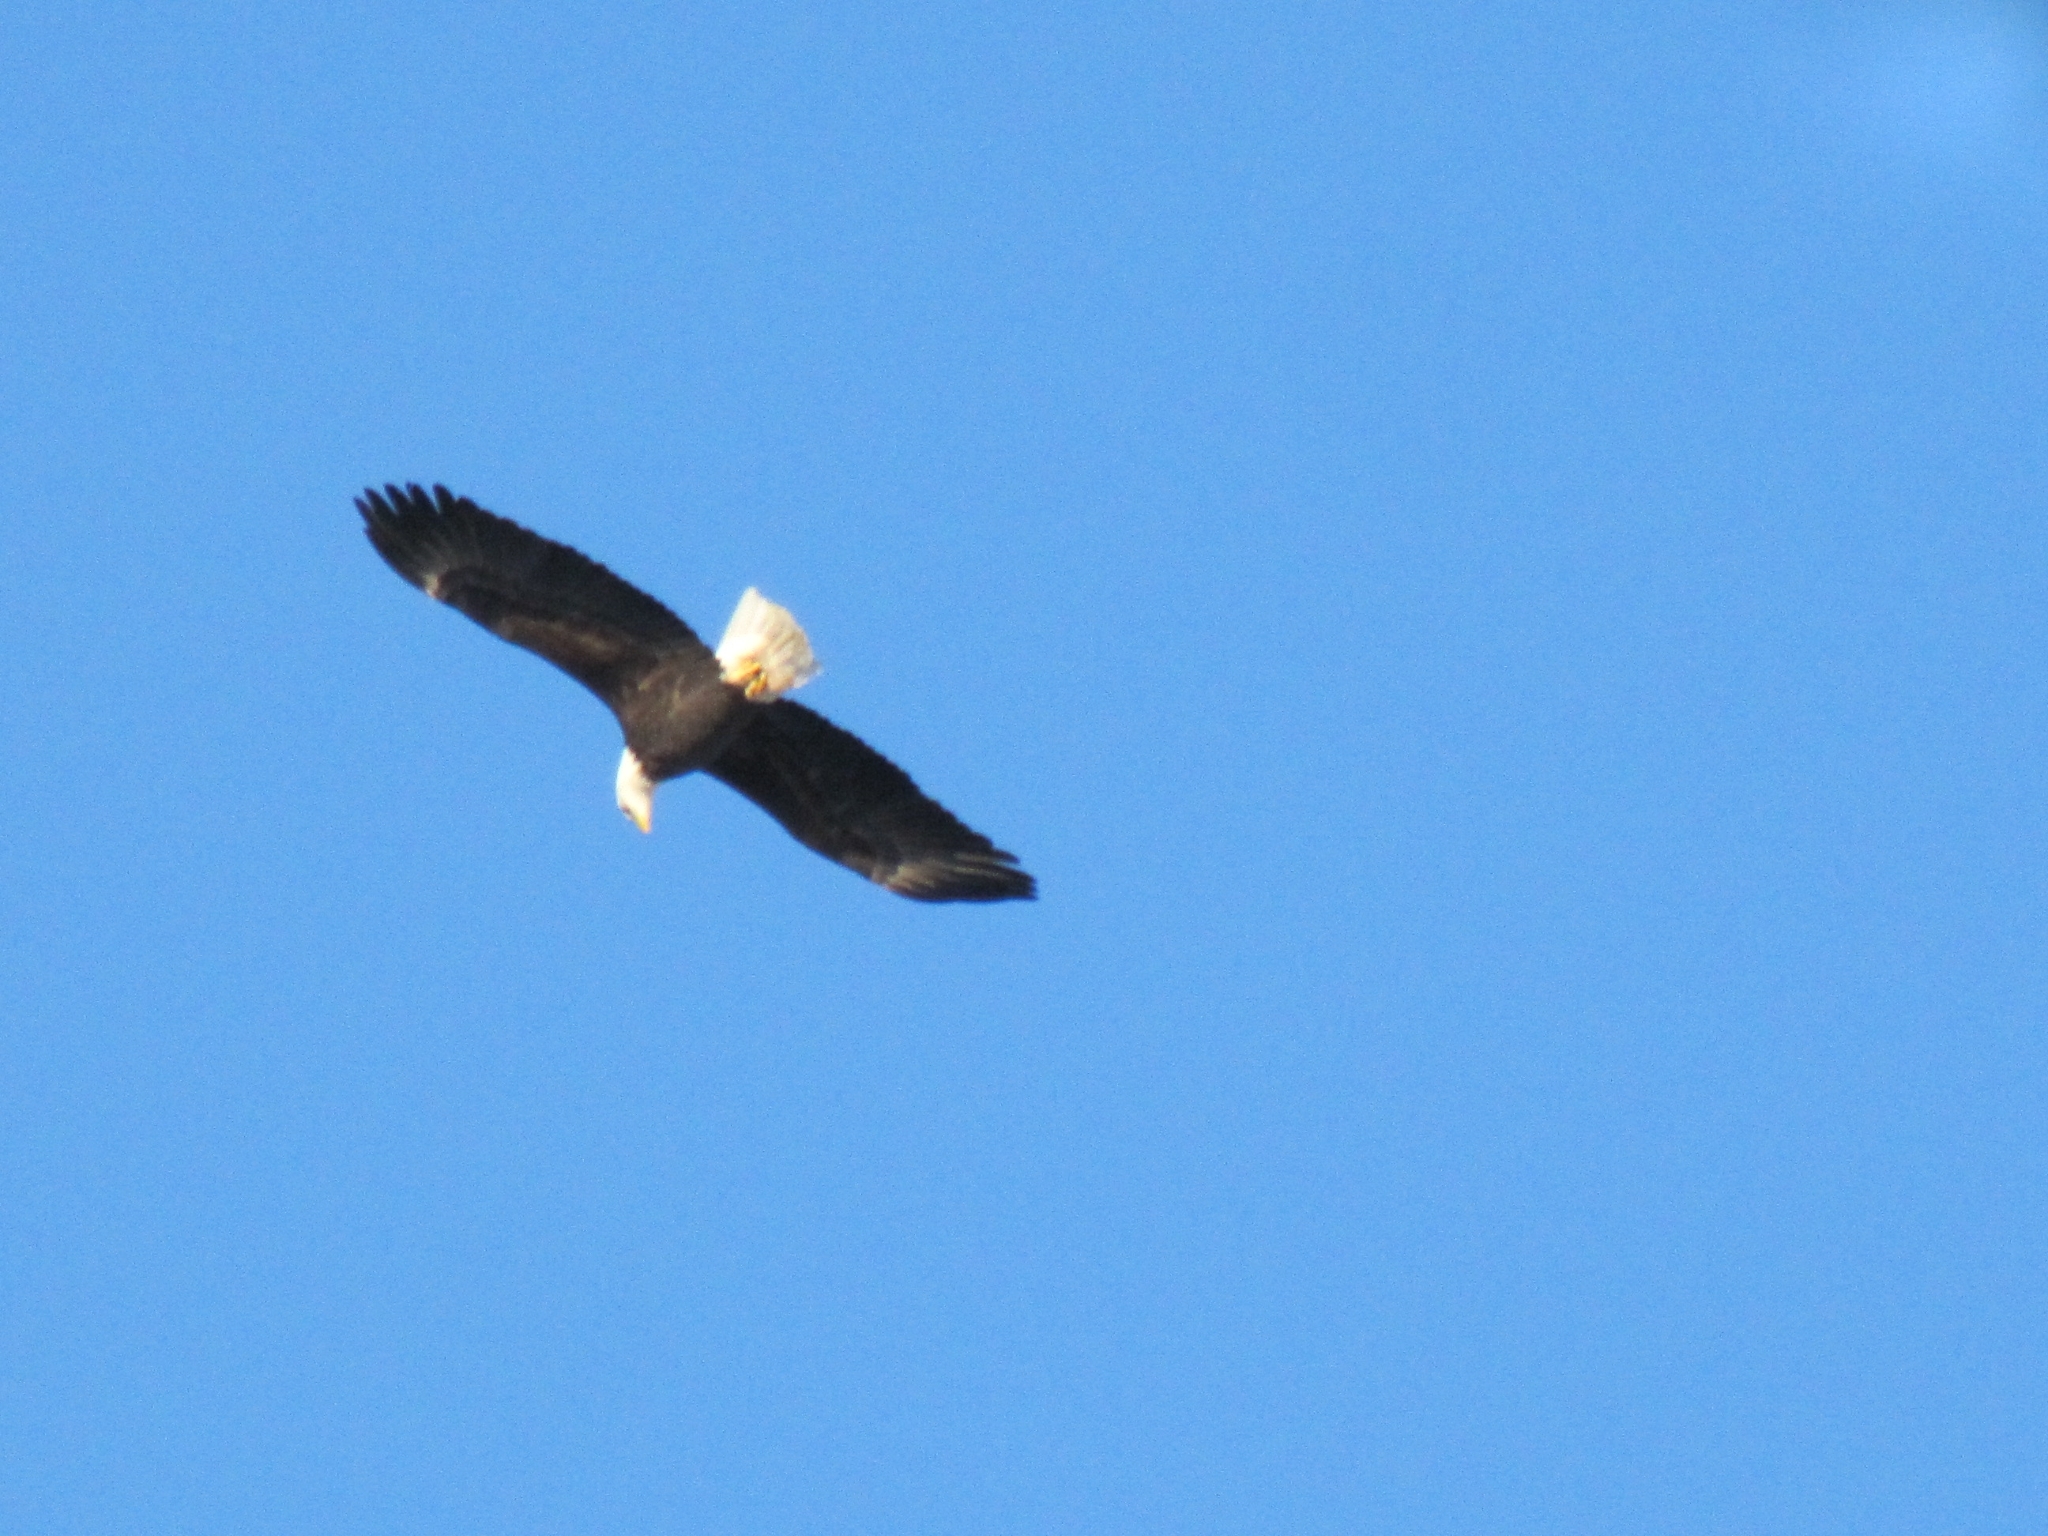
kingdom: Animalia
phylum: Chordata
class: Aves
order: Accipitriformes
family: Accipitridae
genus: Haliaeetus
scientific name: Haliaeetus leucocephalus
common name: Bald eagle
